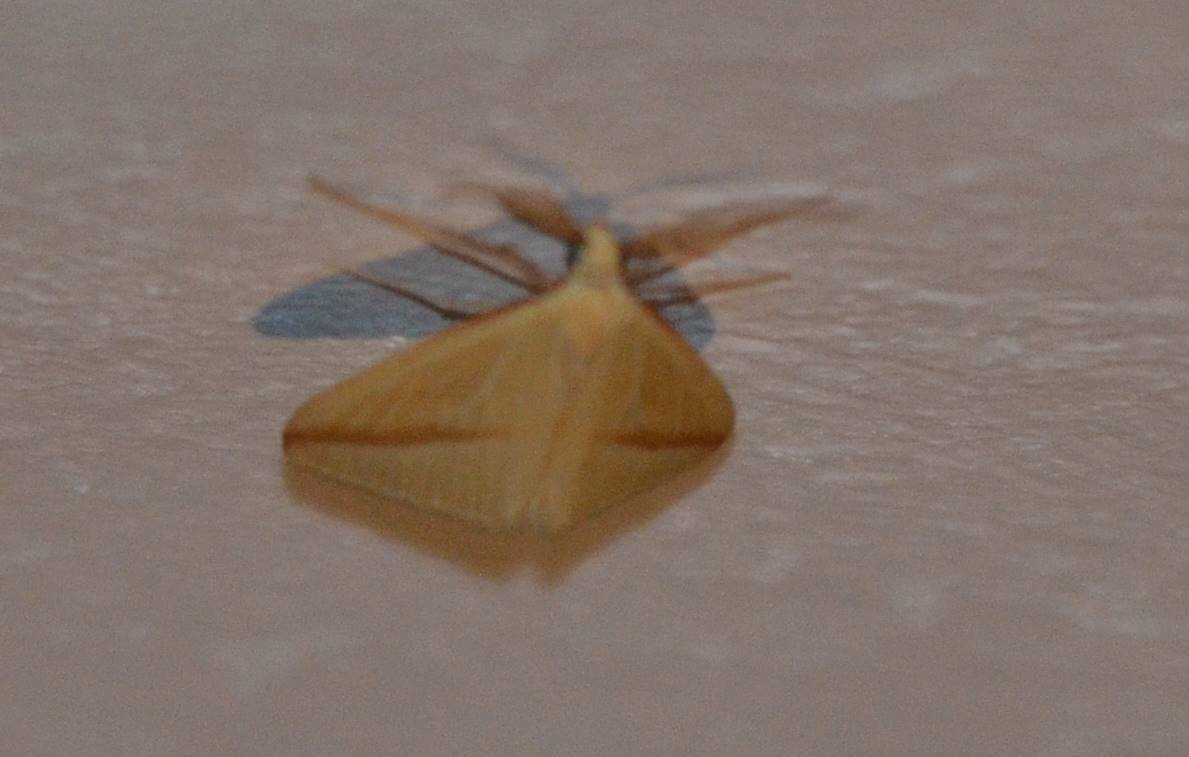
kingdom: Animalia
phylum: Arthropoda
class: Insecta
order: Lepidoptera
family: Geometridae
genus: Rhodometra
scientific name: Rhodometra sacraria
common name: Vestal
